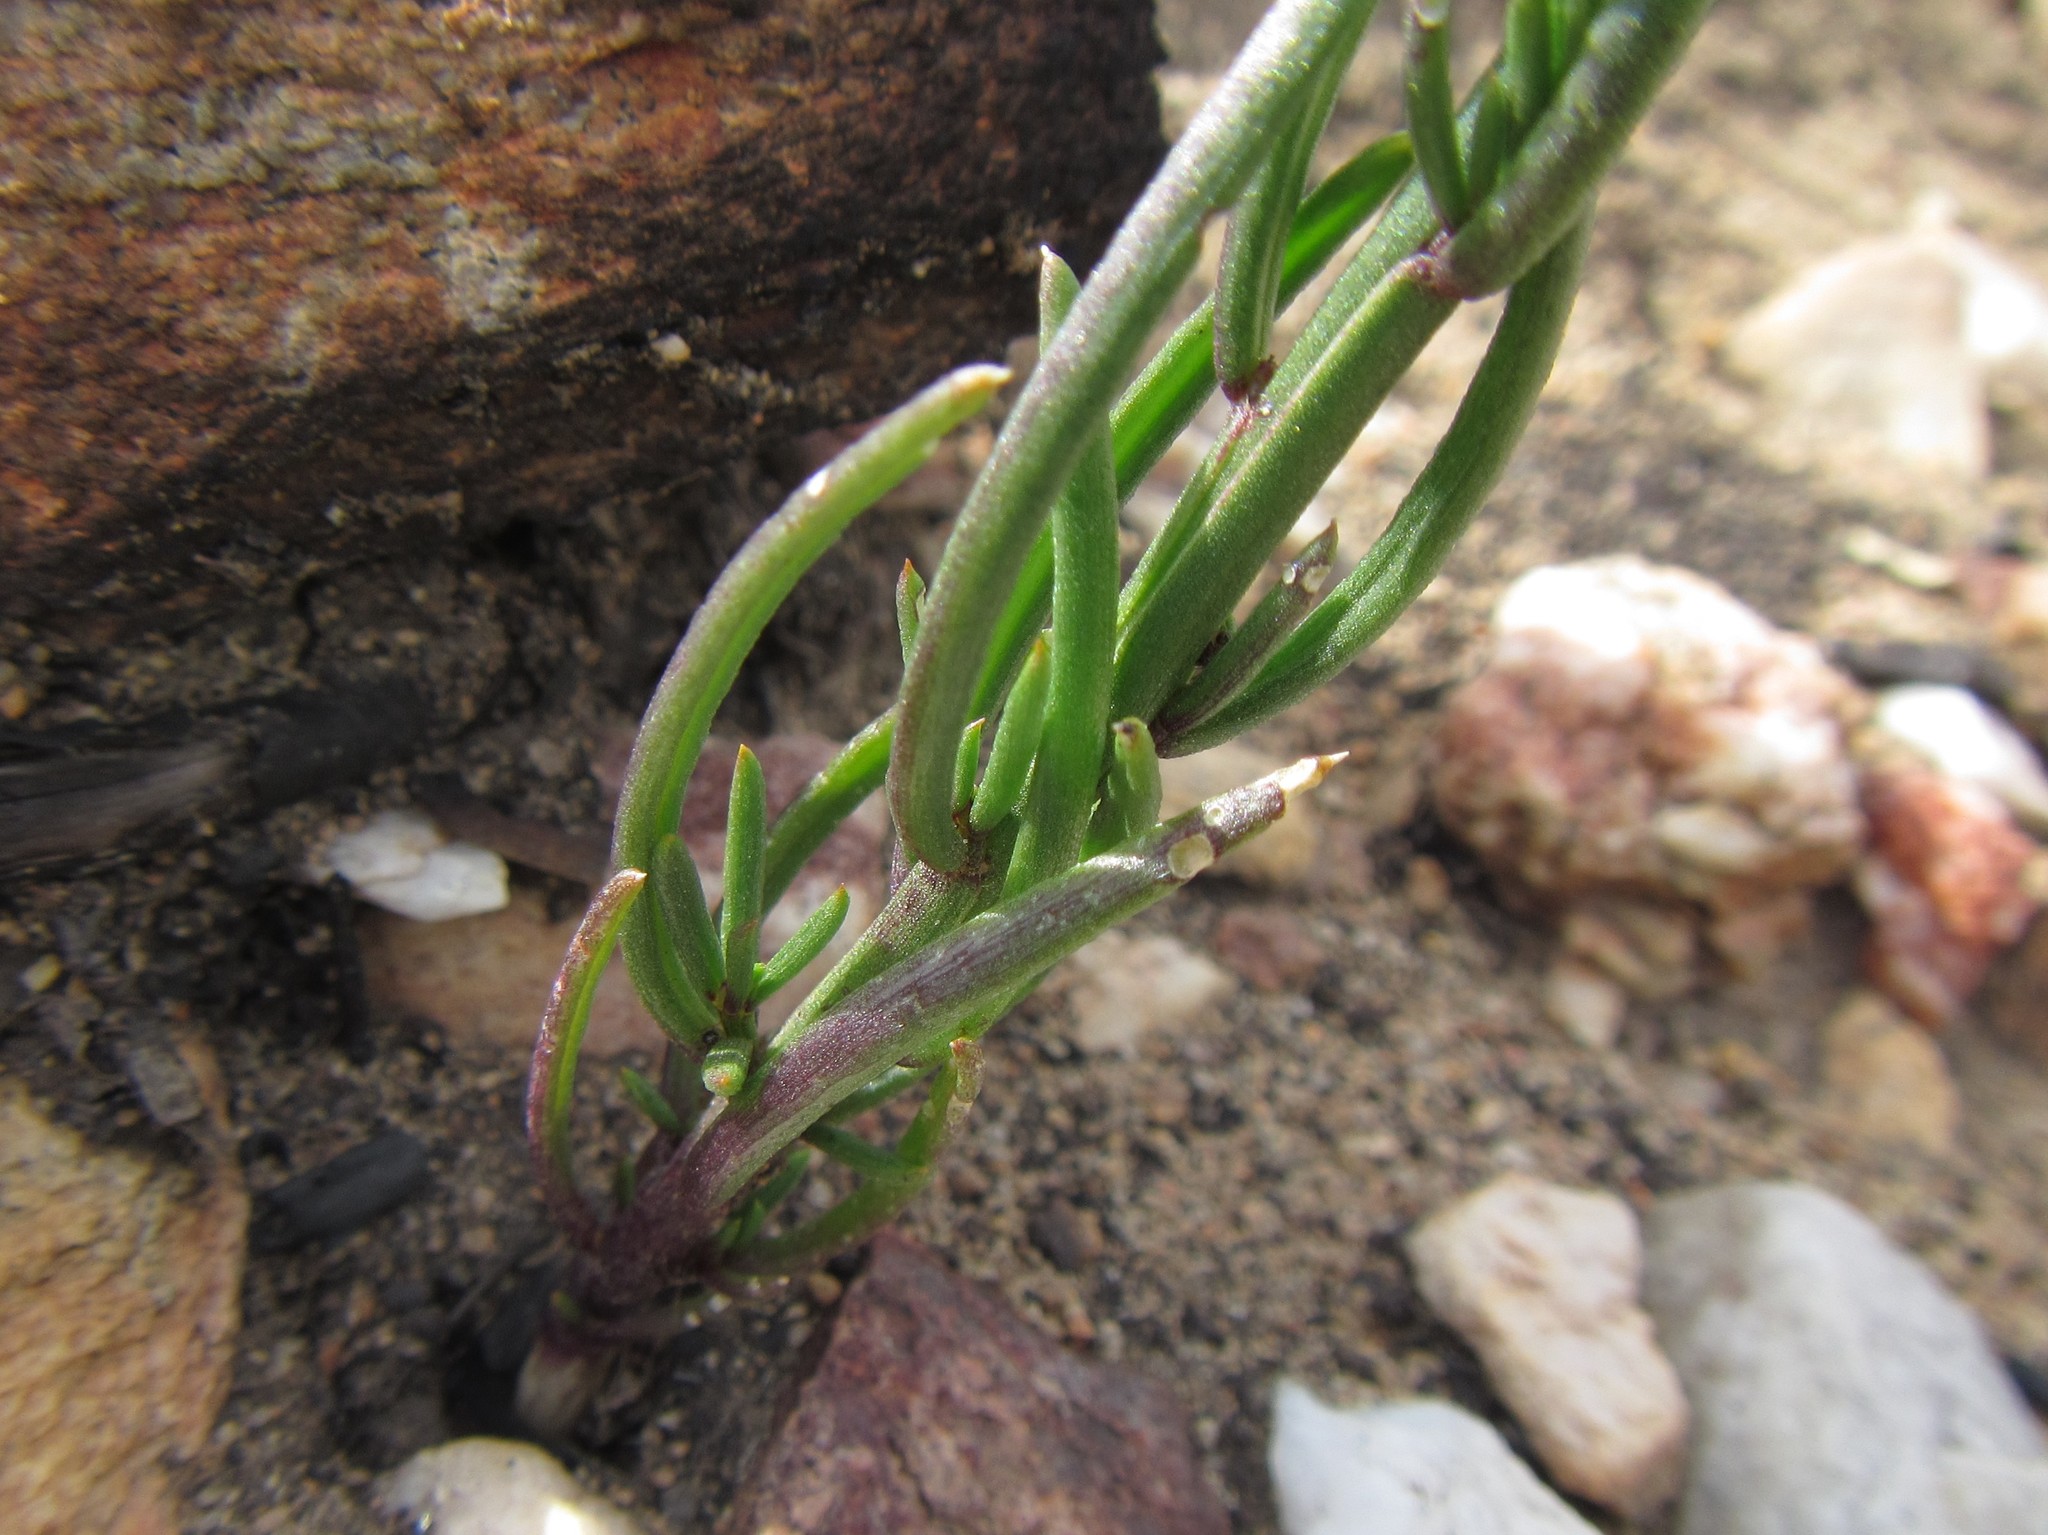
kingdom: Plantae
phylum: Tracheophyta
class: Magnoliopsida
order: Brassicales
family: Brassicaceae
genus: Heliophila
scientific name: Heliophila elongata
